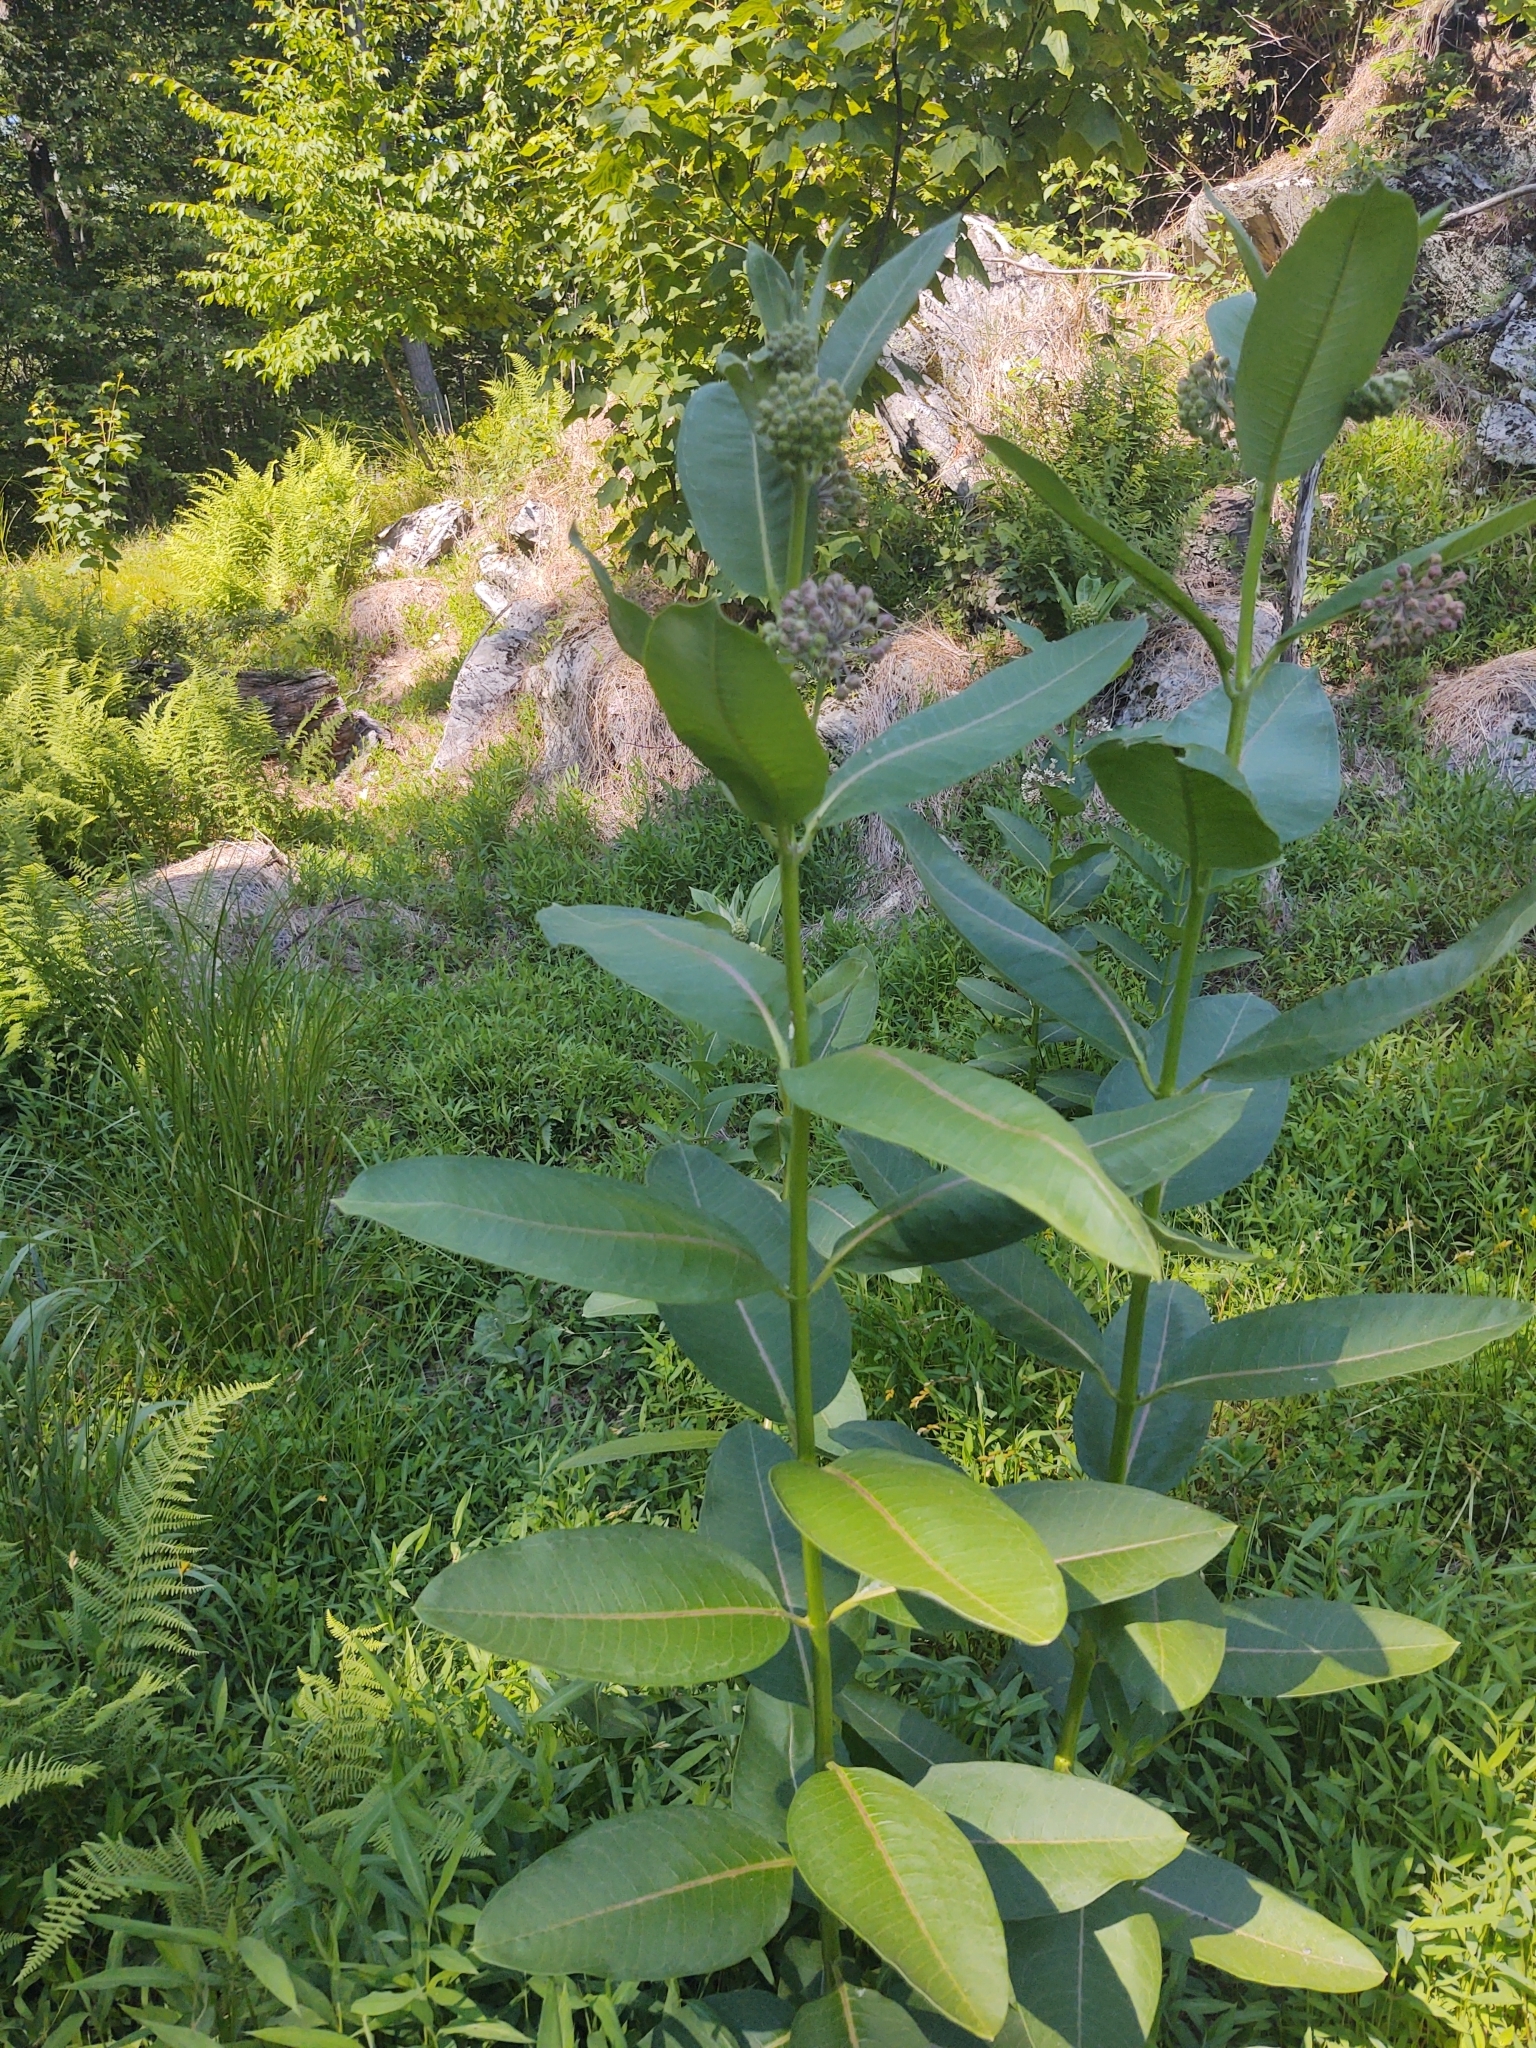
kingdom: Plantae
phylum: Tracheophyta
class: Magnoliopsida
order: Gentianales
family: Apocynaceae
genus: Asclepias
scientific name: Asclepias syriaca
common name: Common milkweed
